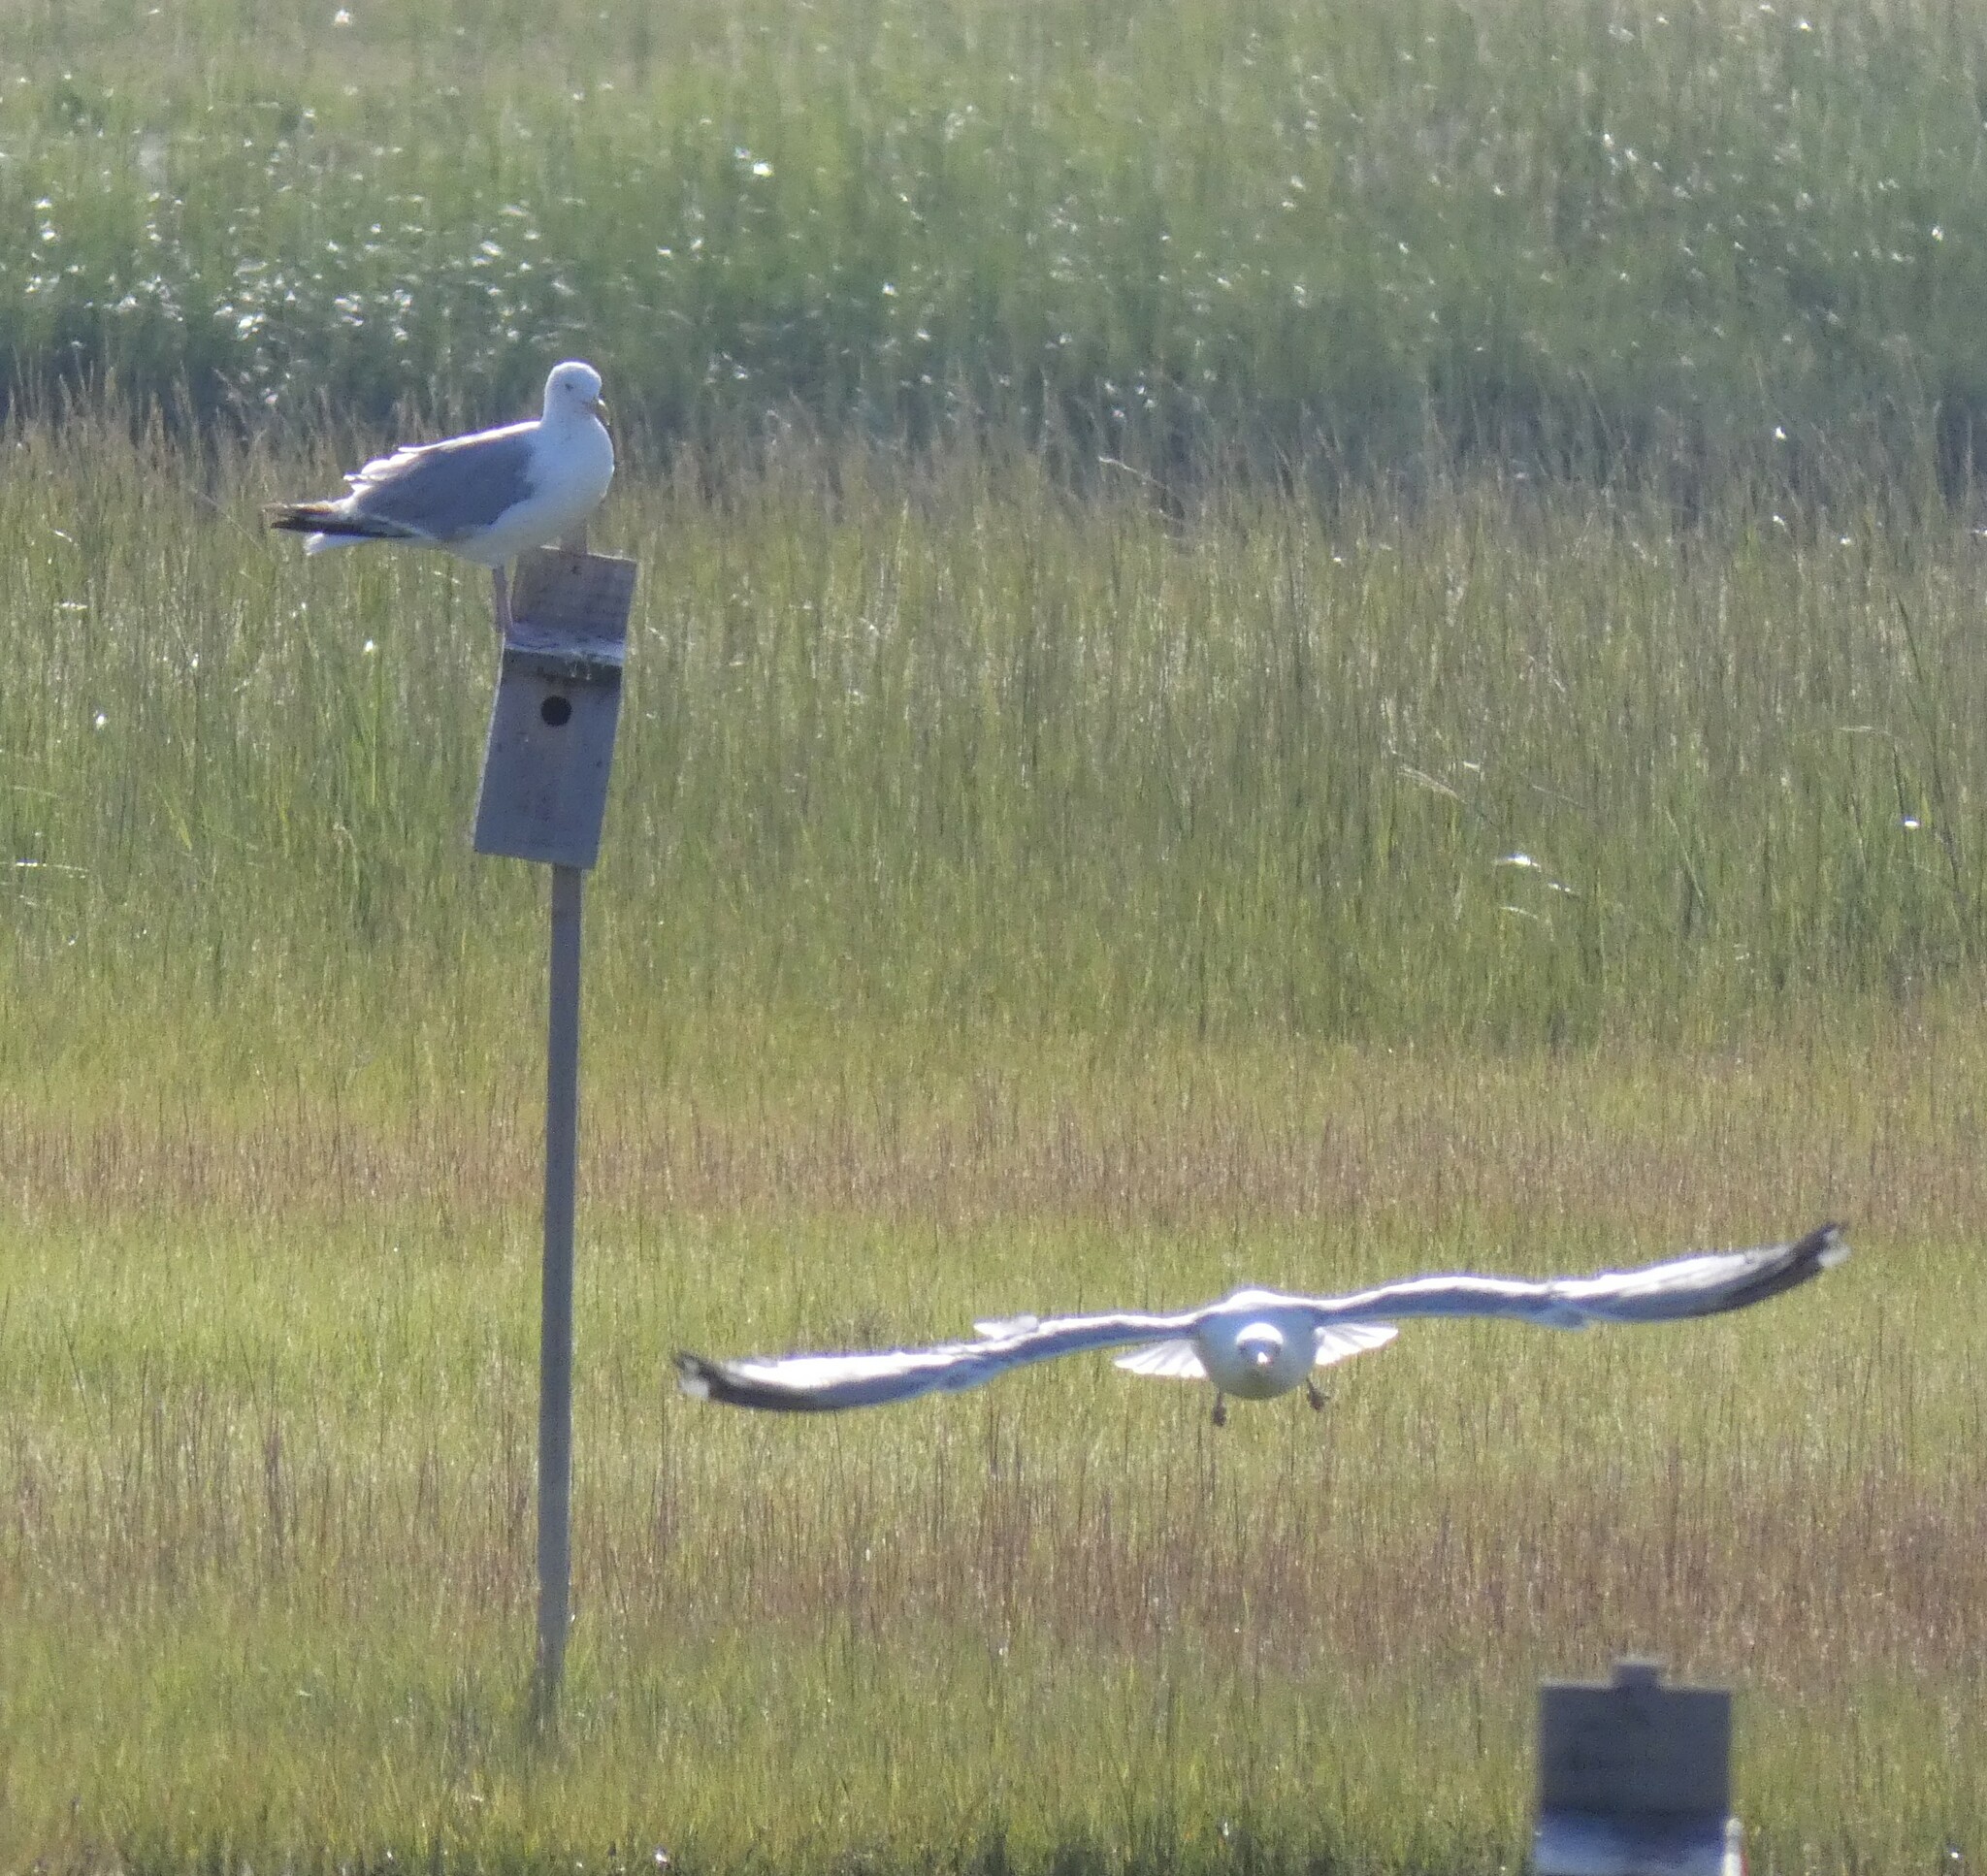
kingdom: Animalia
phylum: Chordata
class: Aves
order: Charadriiformes
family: Laridae
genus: Larus
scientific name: Larus argentatus
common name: Herring gull
